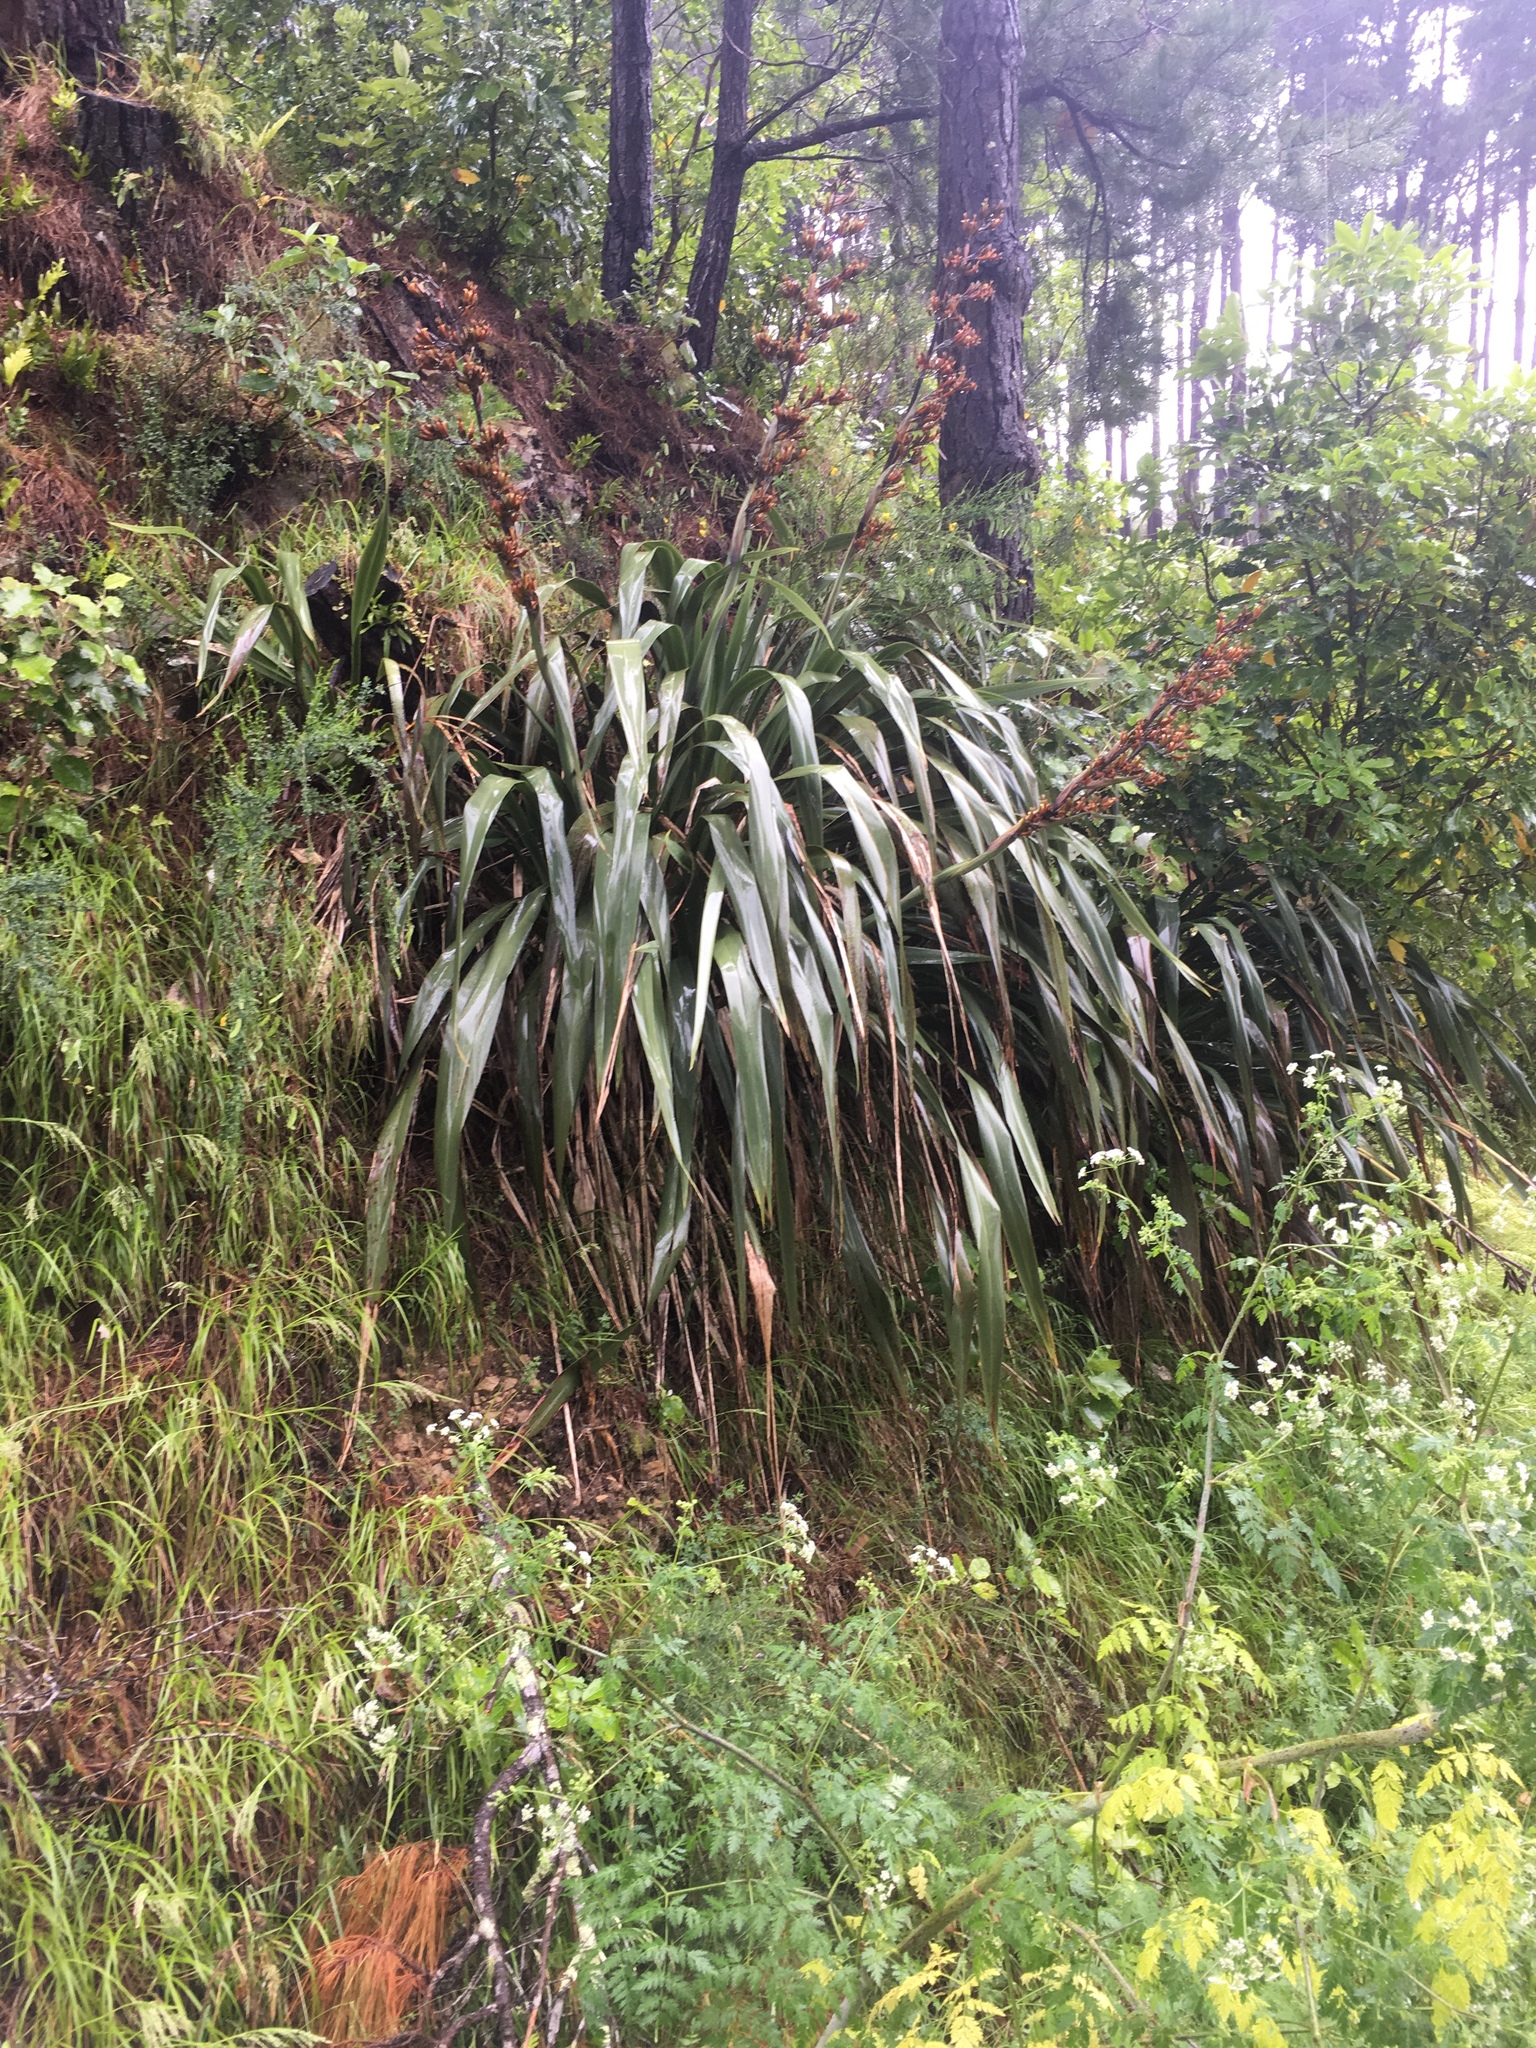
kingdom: Plantae
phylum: Tracheophyta
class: Liliopsida
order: Asparagales
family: Asphodelaceae
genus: Phormium
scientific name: Phormium colensoi
